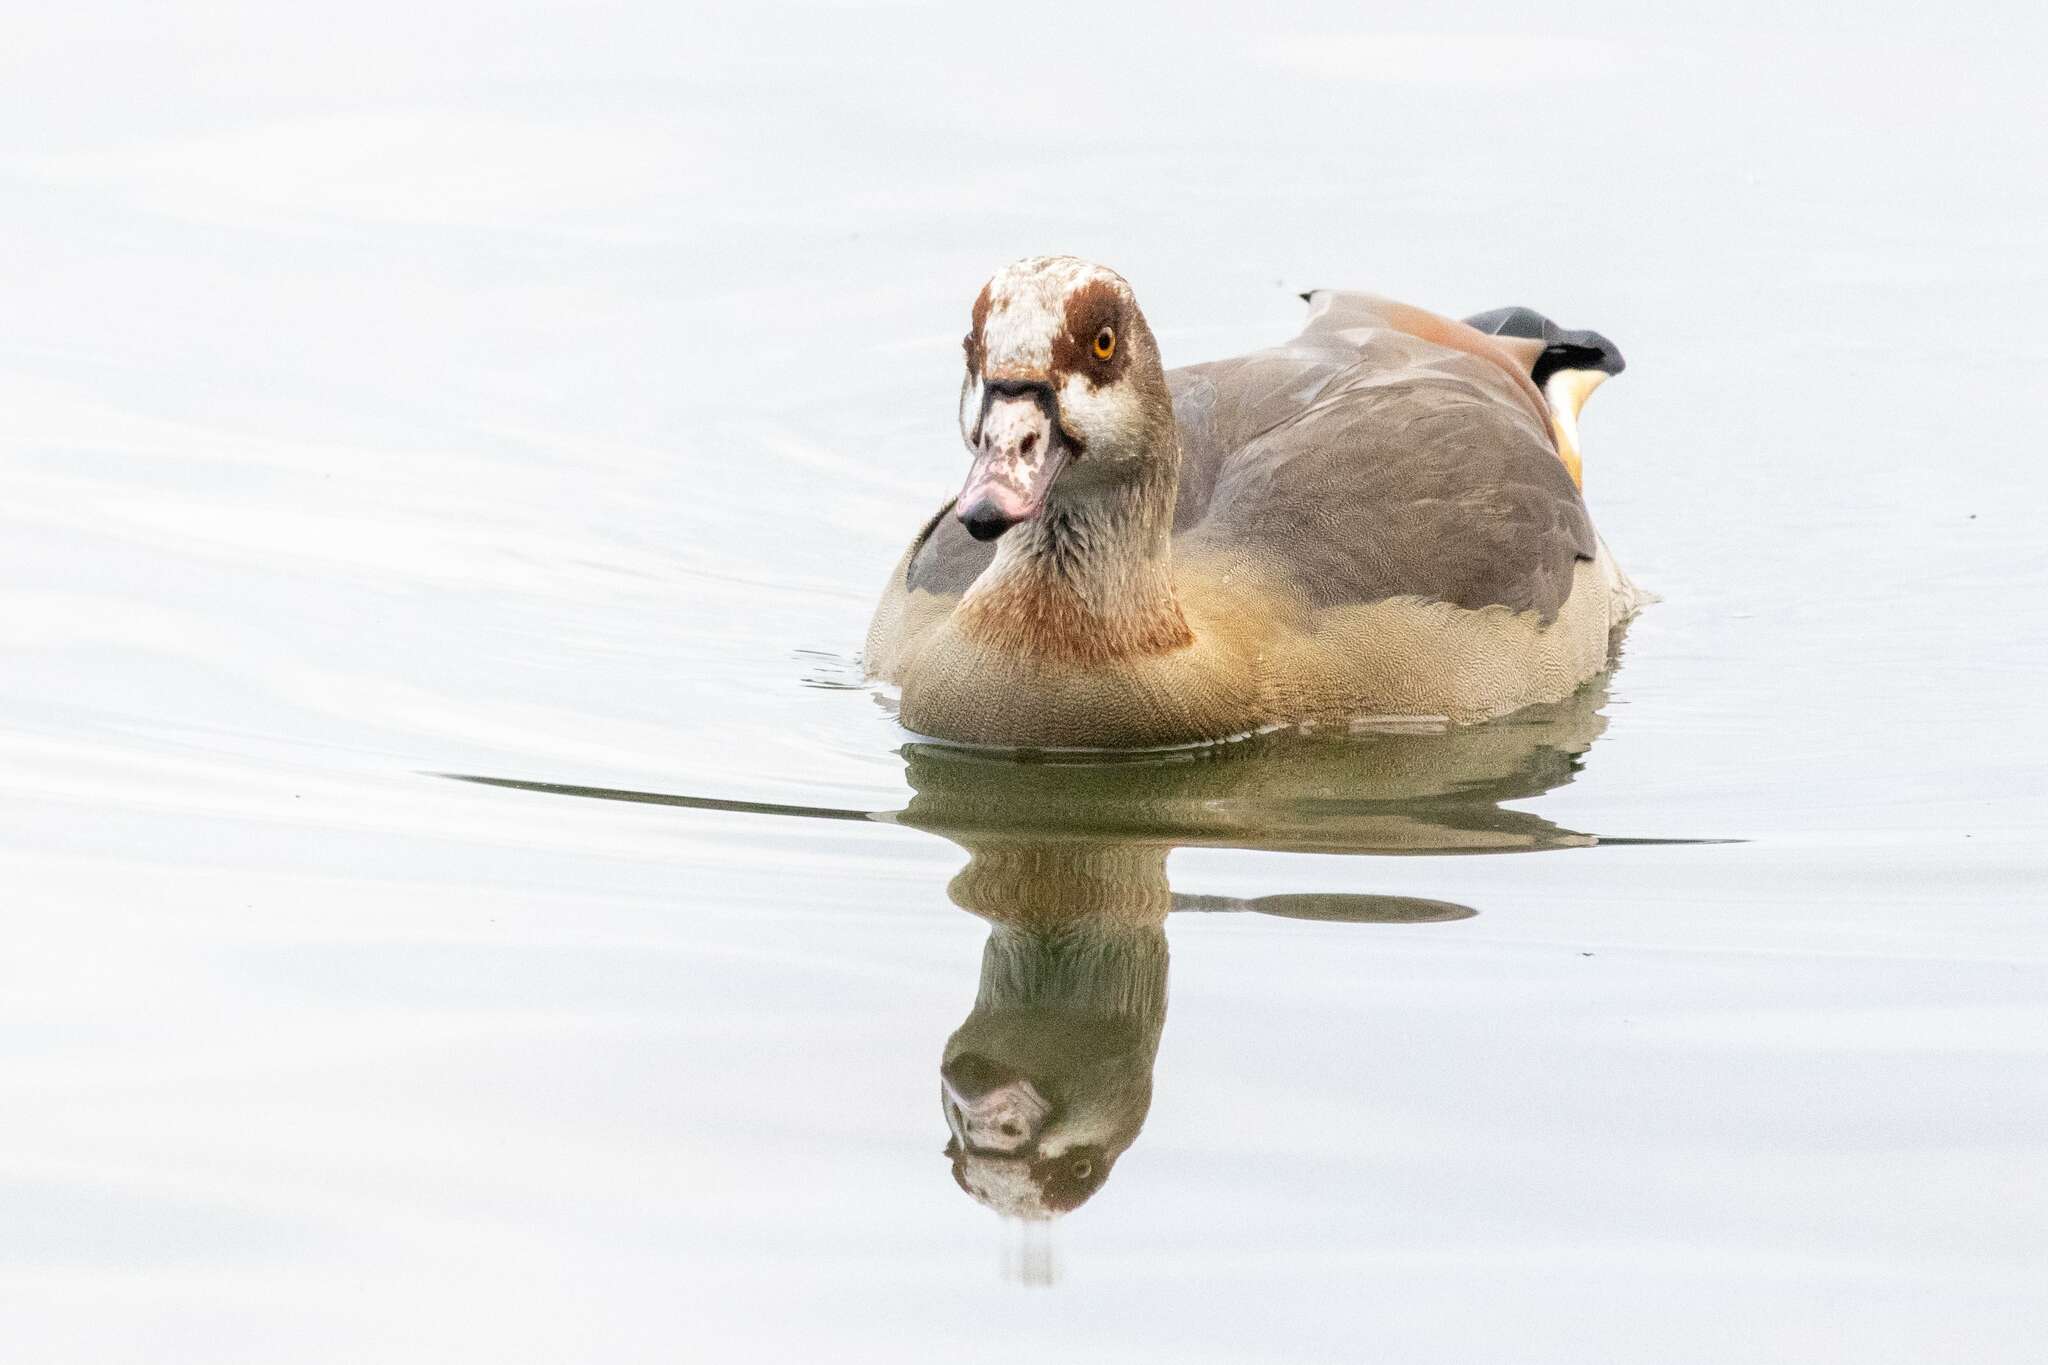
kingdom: Animalia
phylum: Chordata
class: Aves
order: Anseriformes
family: Anatidae
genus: Alopochen
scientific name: Alopochen aegyptiaca
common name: Egyptian goose
